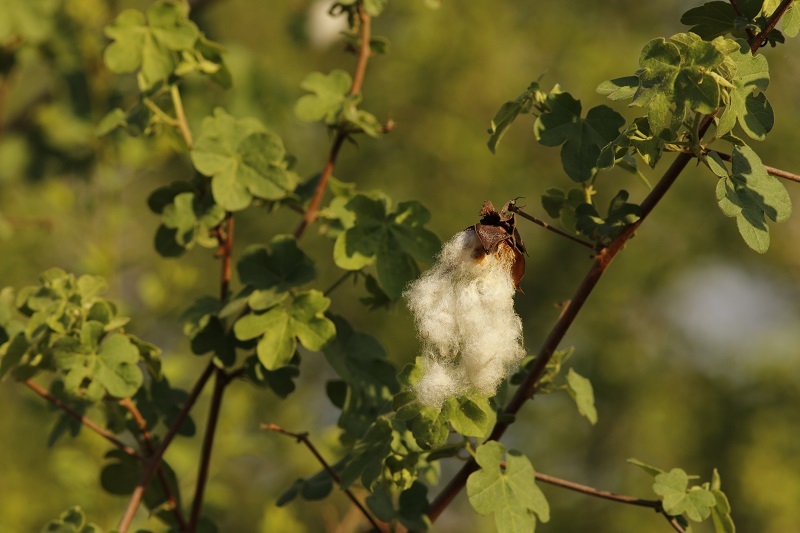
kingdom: Plantae
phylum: Tracheophyta
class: Magnoliopsida
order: Malvales
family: Malvaceae
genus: Gossypium
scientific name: Gossypium herbaceum
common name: Levant cotton
